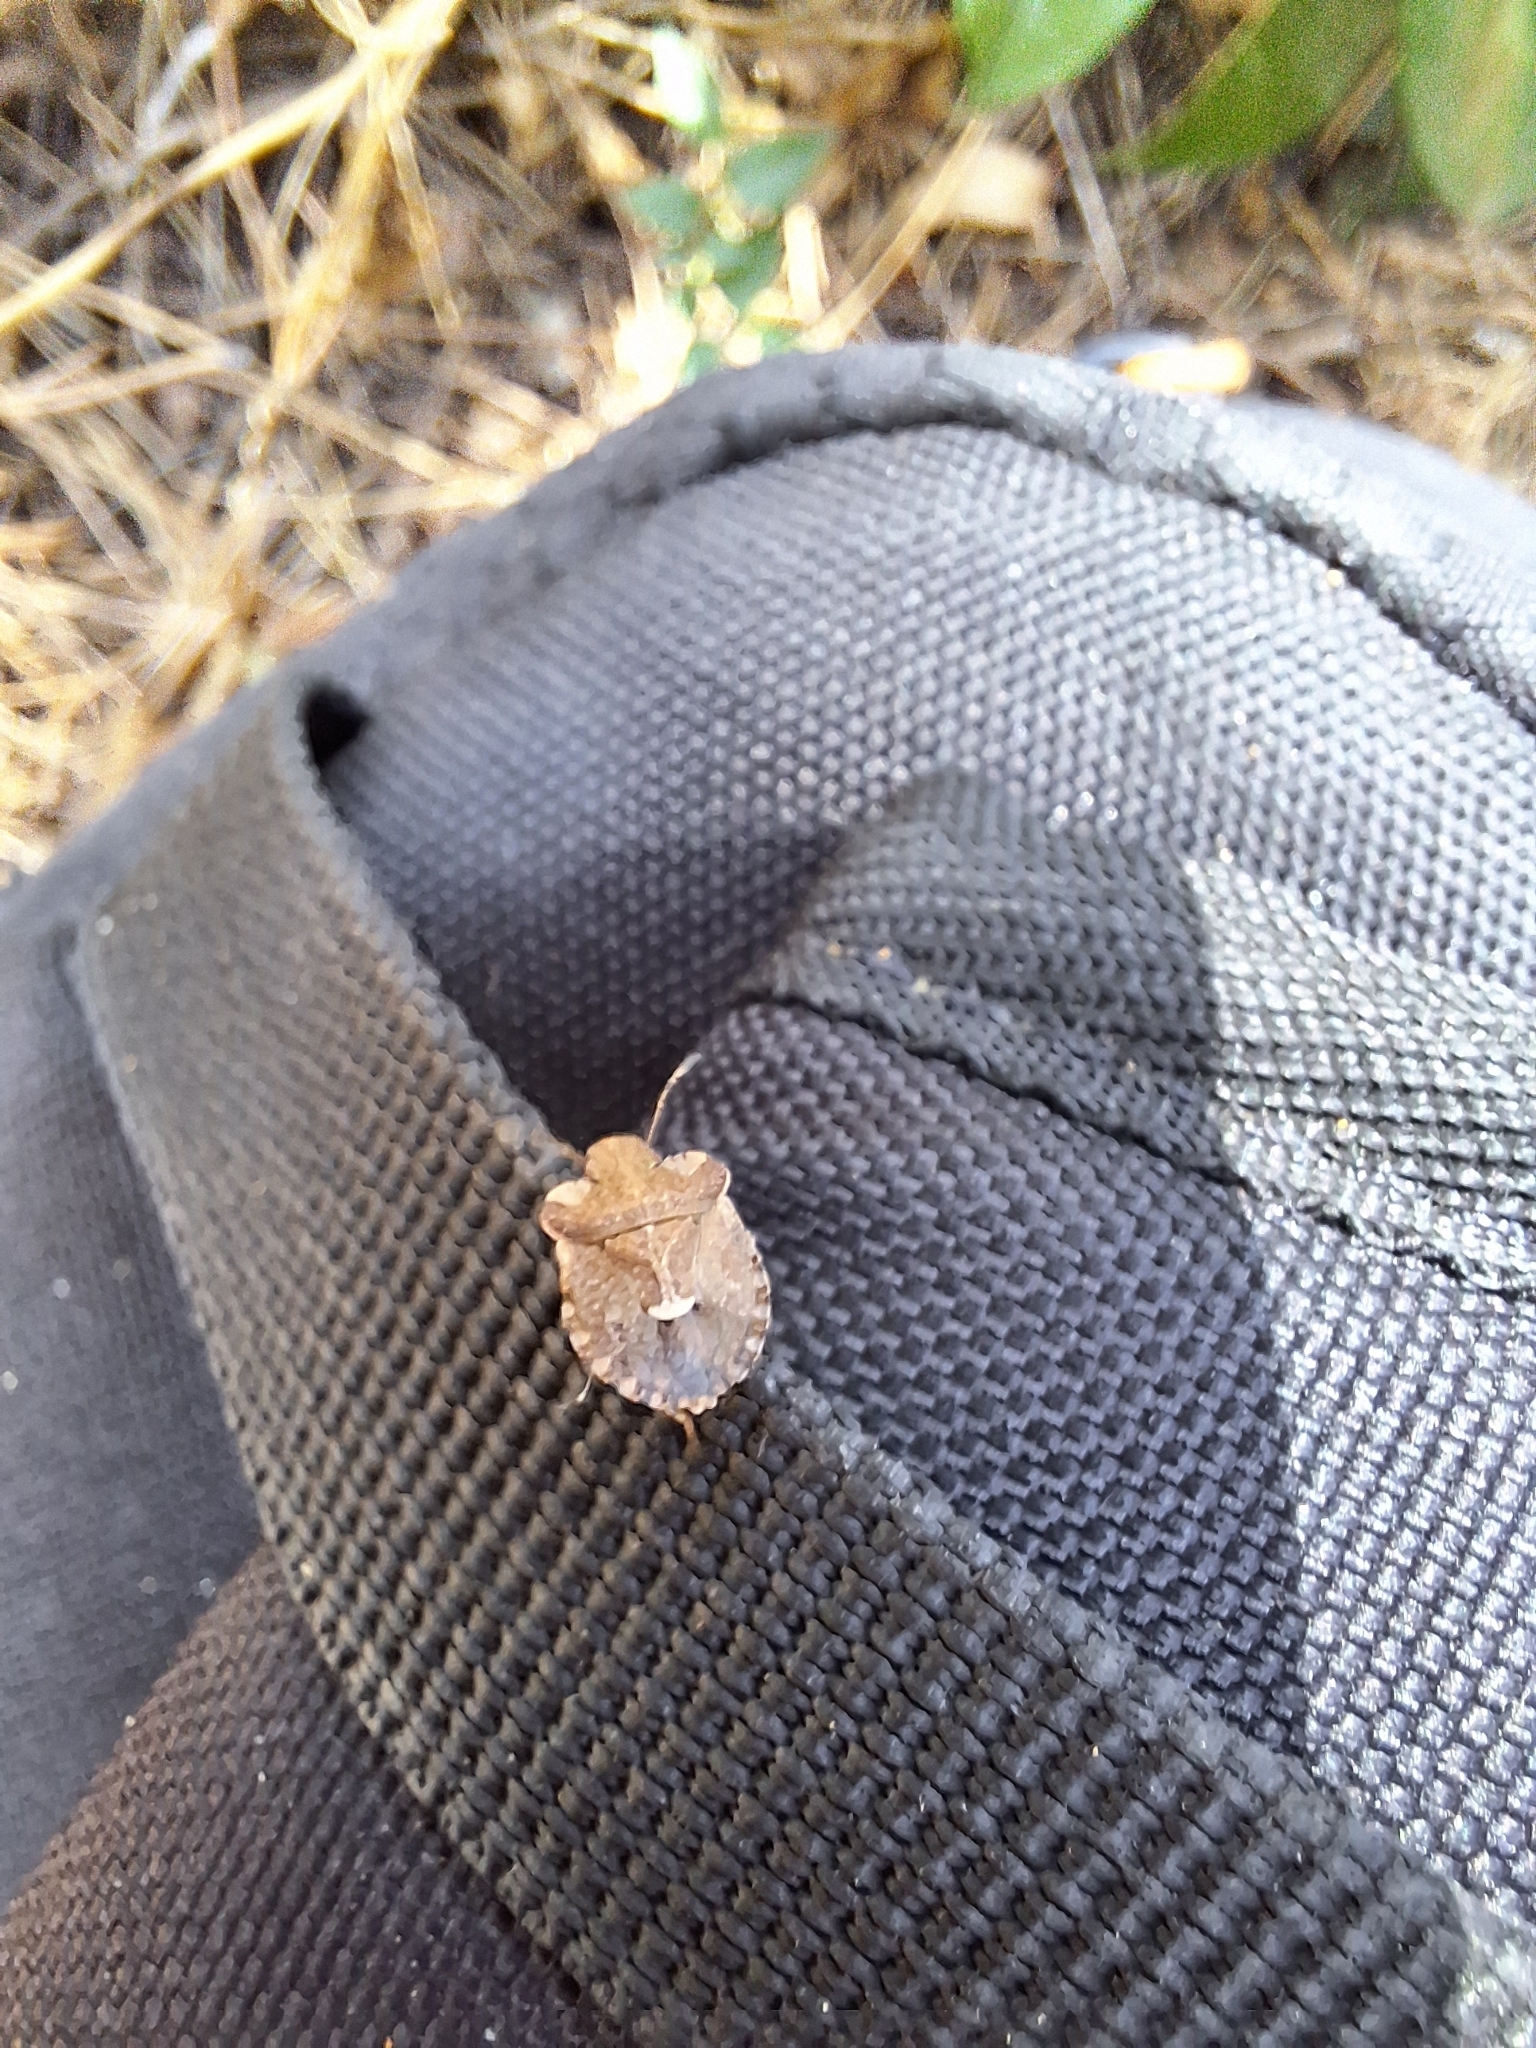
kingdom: Animalia
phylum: Arthropoda
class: Insecta
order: Hemiptera
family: Pentatomidae
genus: Dyroderes
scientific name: Dyroderes umbraculatus
